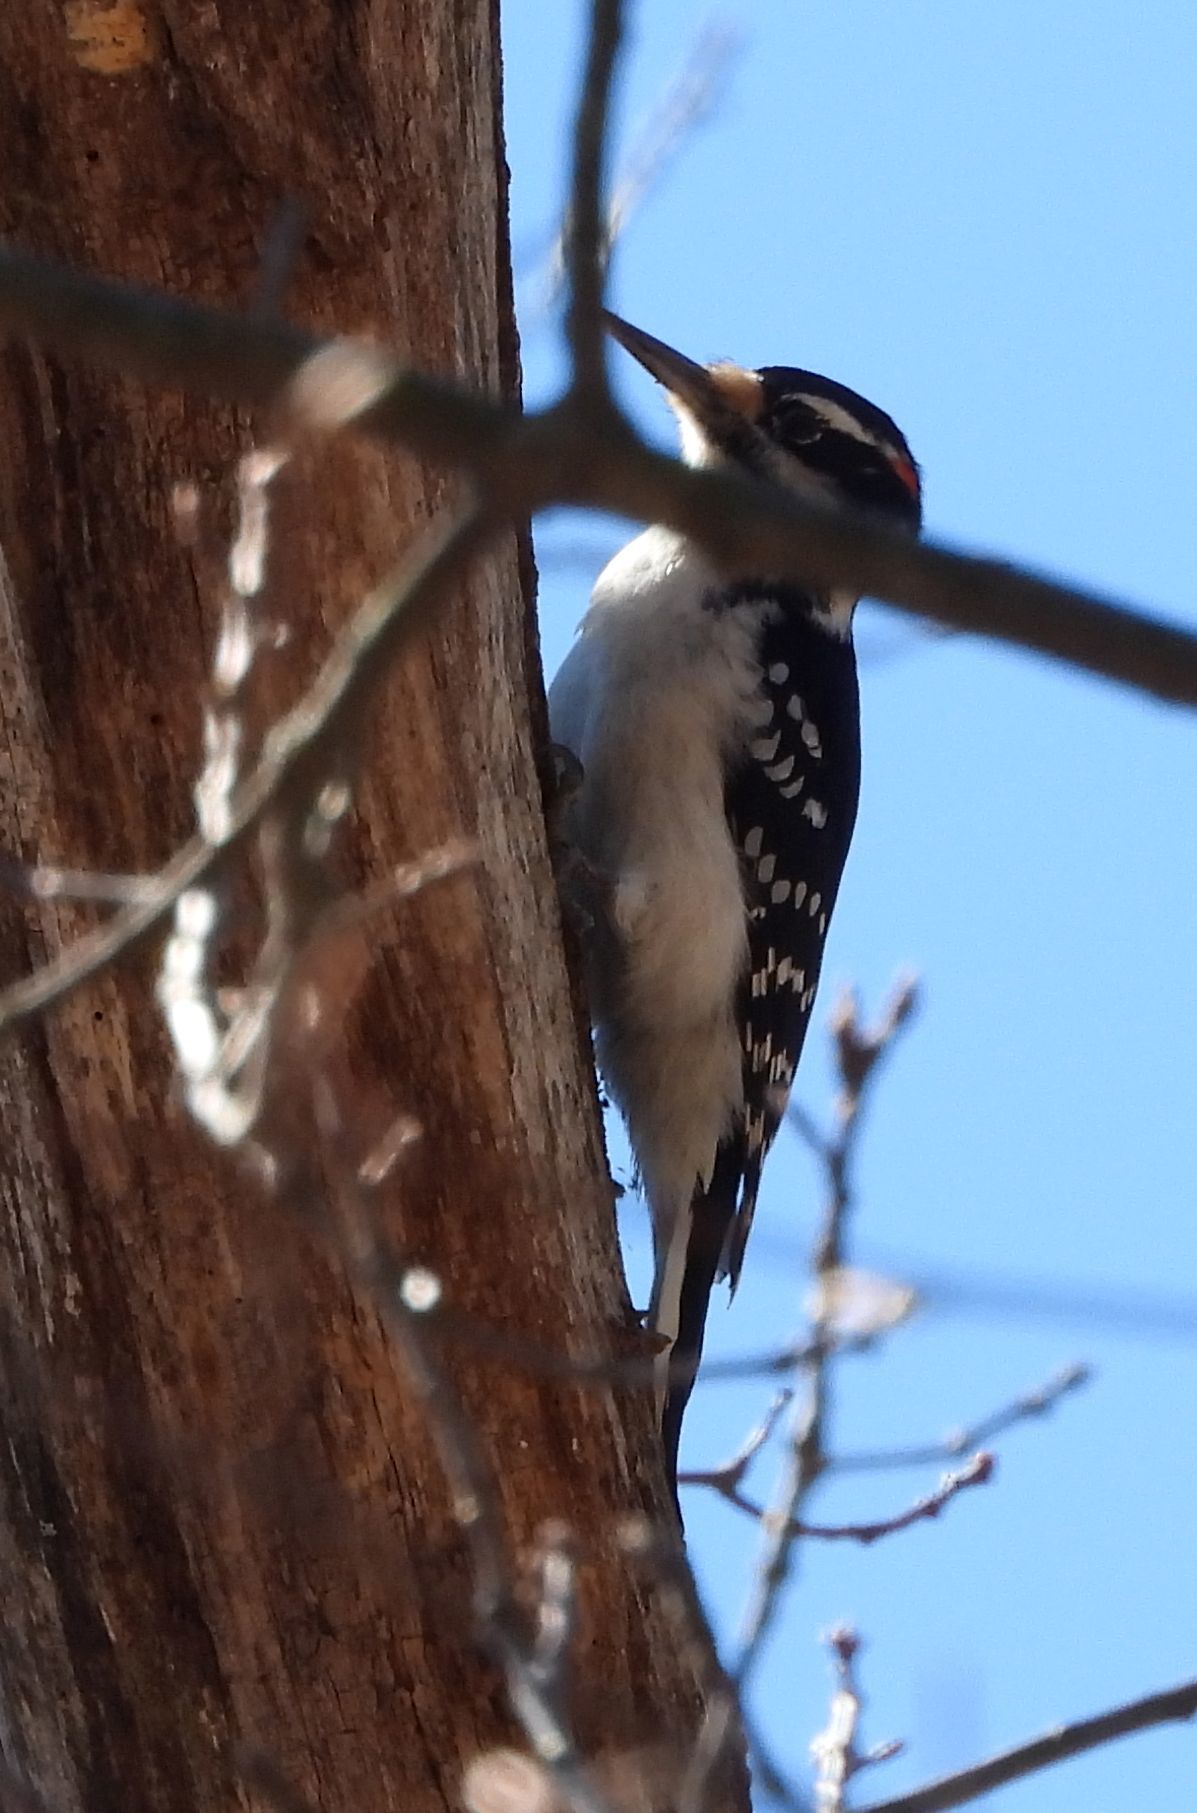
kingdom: Animalia
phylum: Chordata
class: Aves
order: Piciformes
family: Picidae
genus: Leuconotopicus
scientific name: Leuconotopicus villosus
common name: Hairy woodpecker
